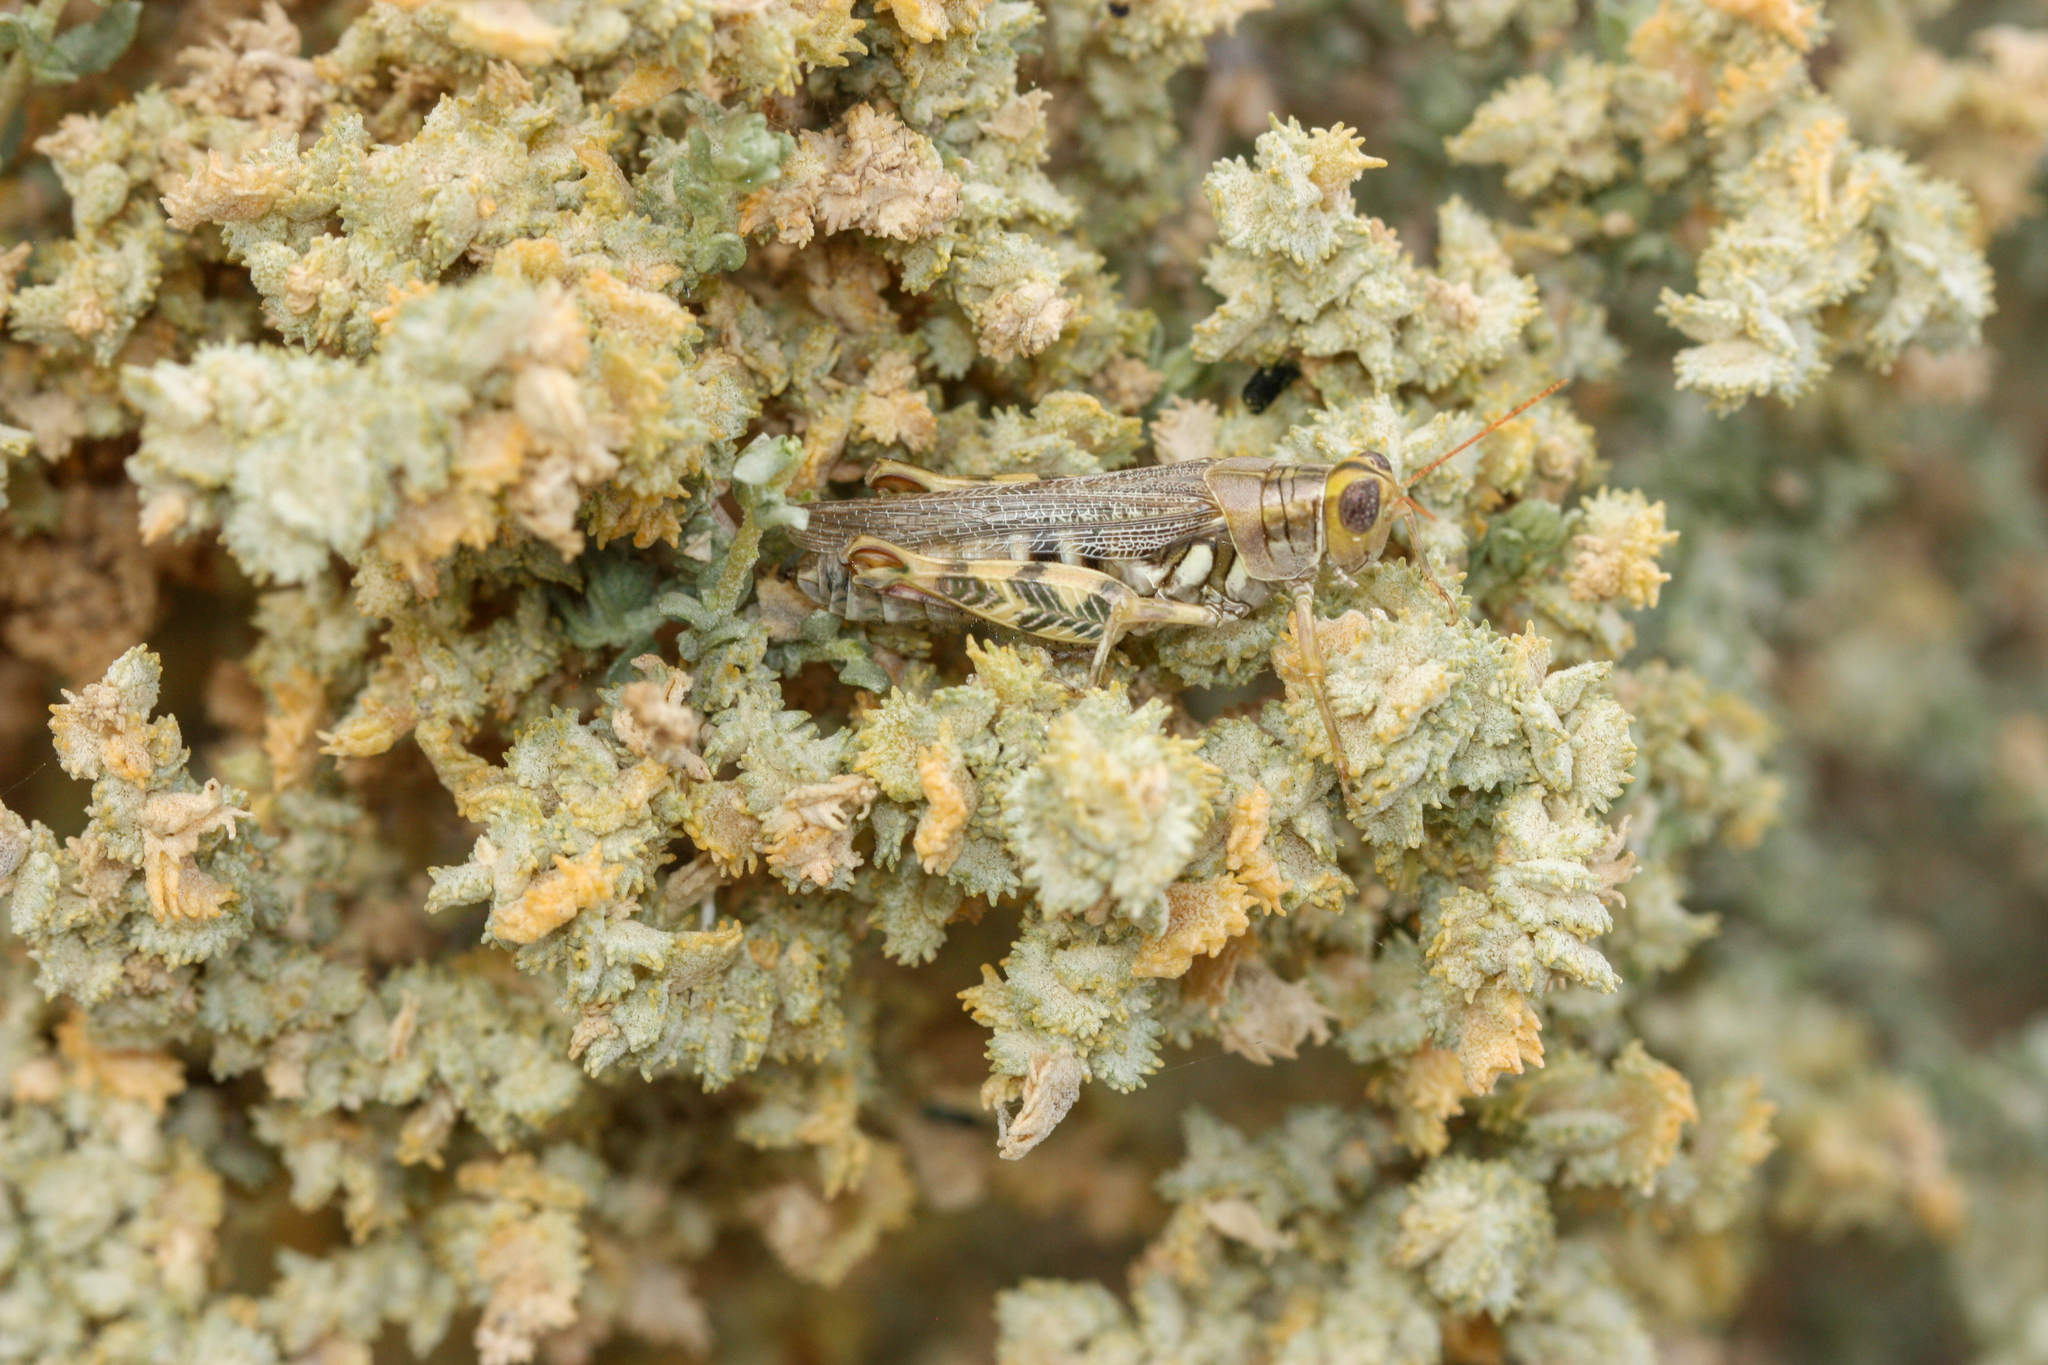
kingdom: Animalia
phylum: Arthropoda
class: Insecta
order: Orthoptera
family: Acrididae
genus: Aeoloplides
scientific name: Aeoloplides tenuipennis
